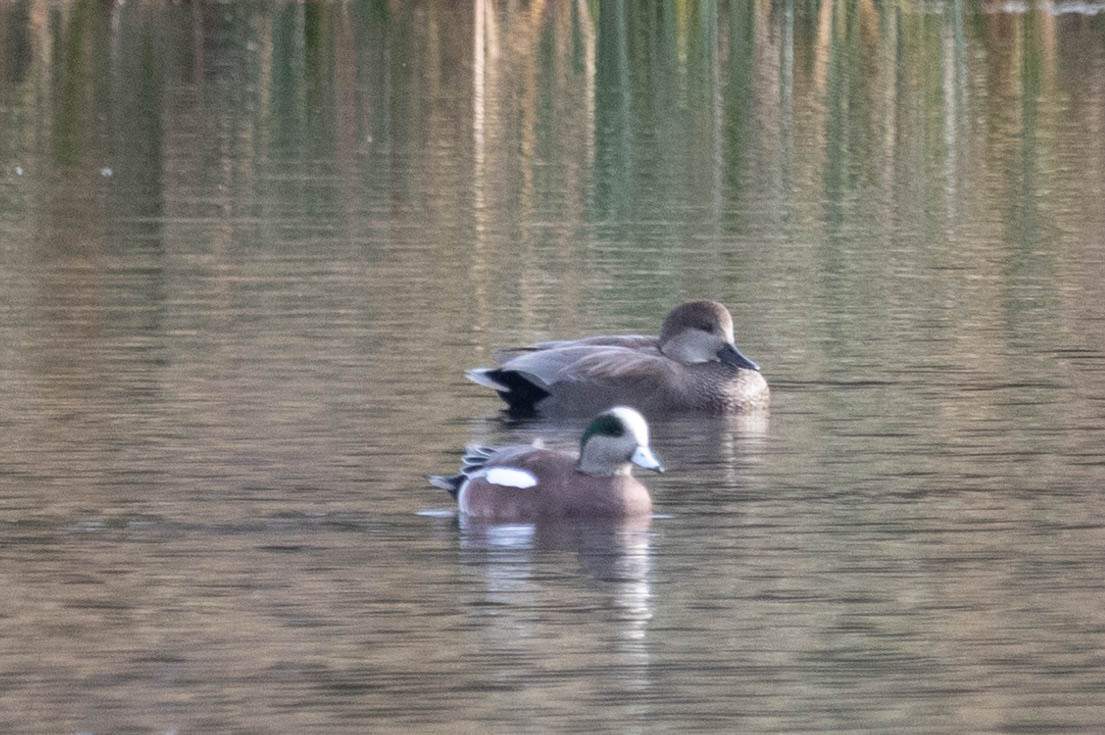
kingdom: Animalia
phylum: Chordata
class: Aves
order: Anseriformes
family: Anatidae
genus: Mareca
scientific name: Mareca americana
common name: American wigeon
